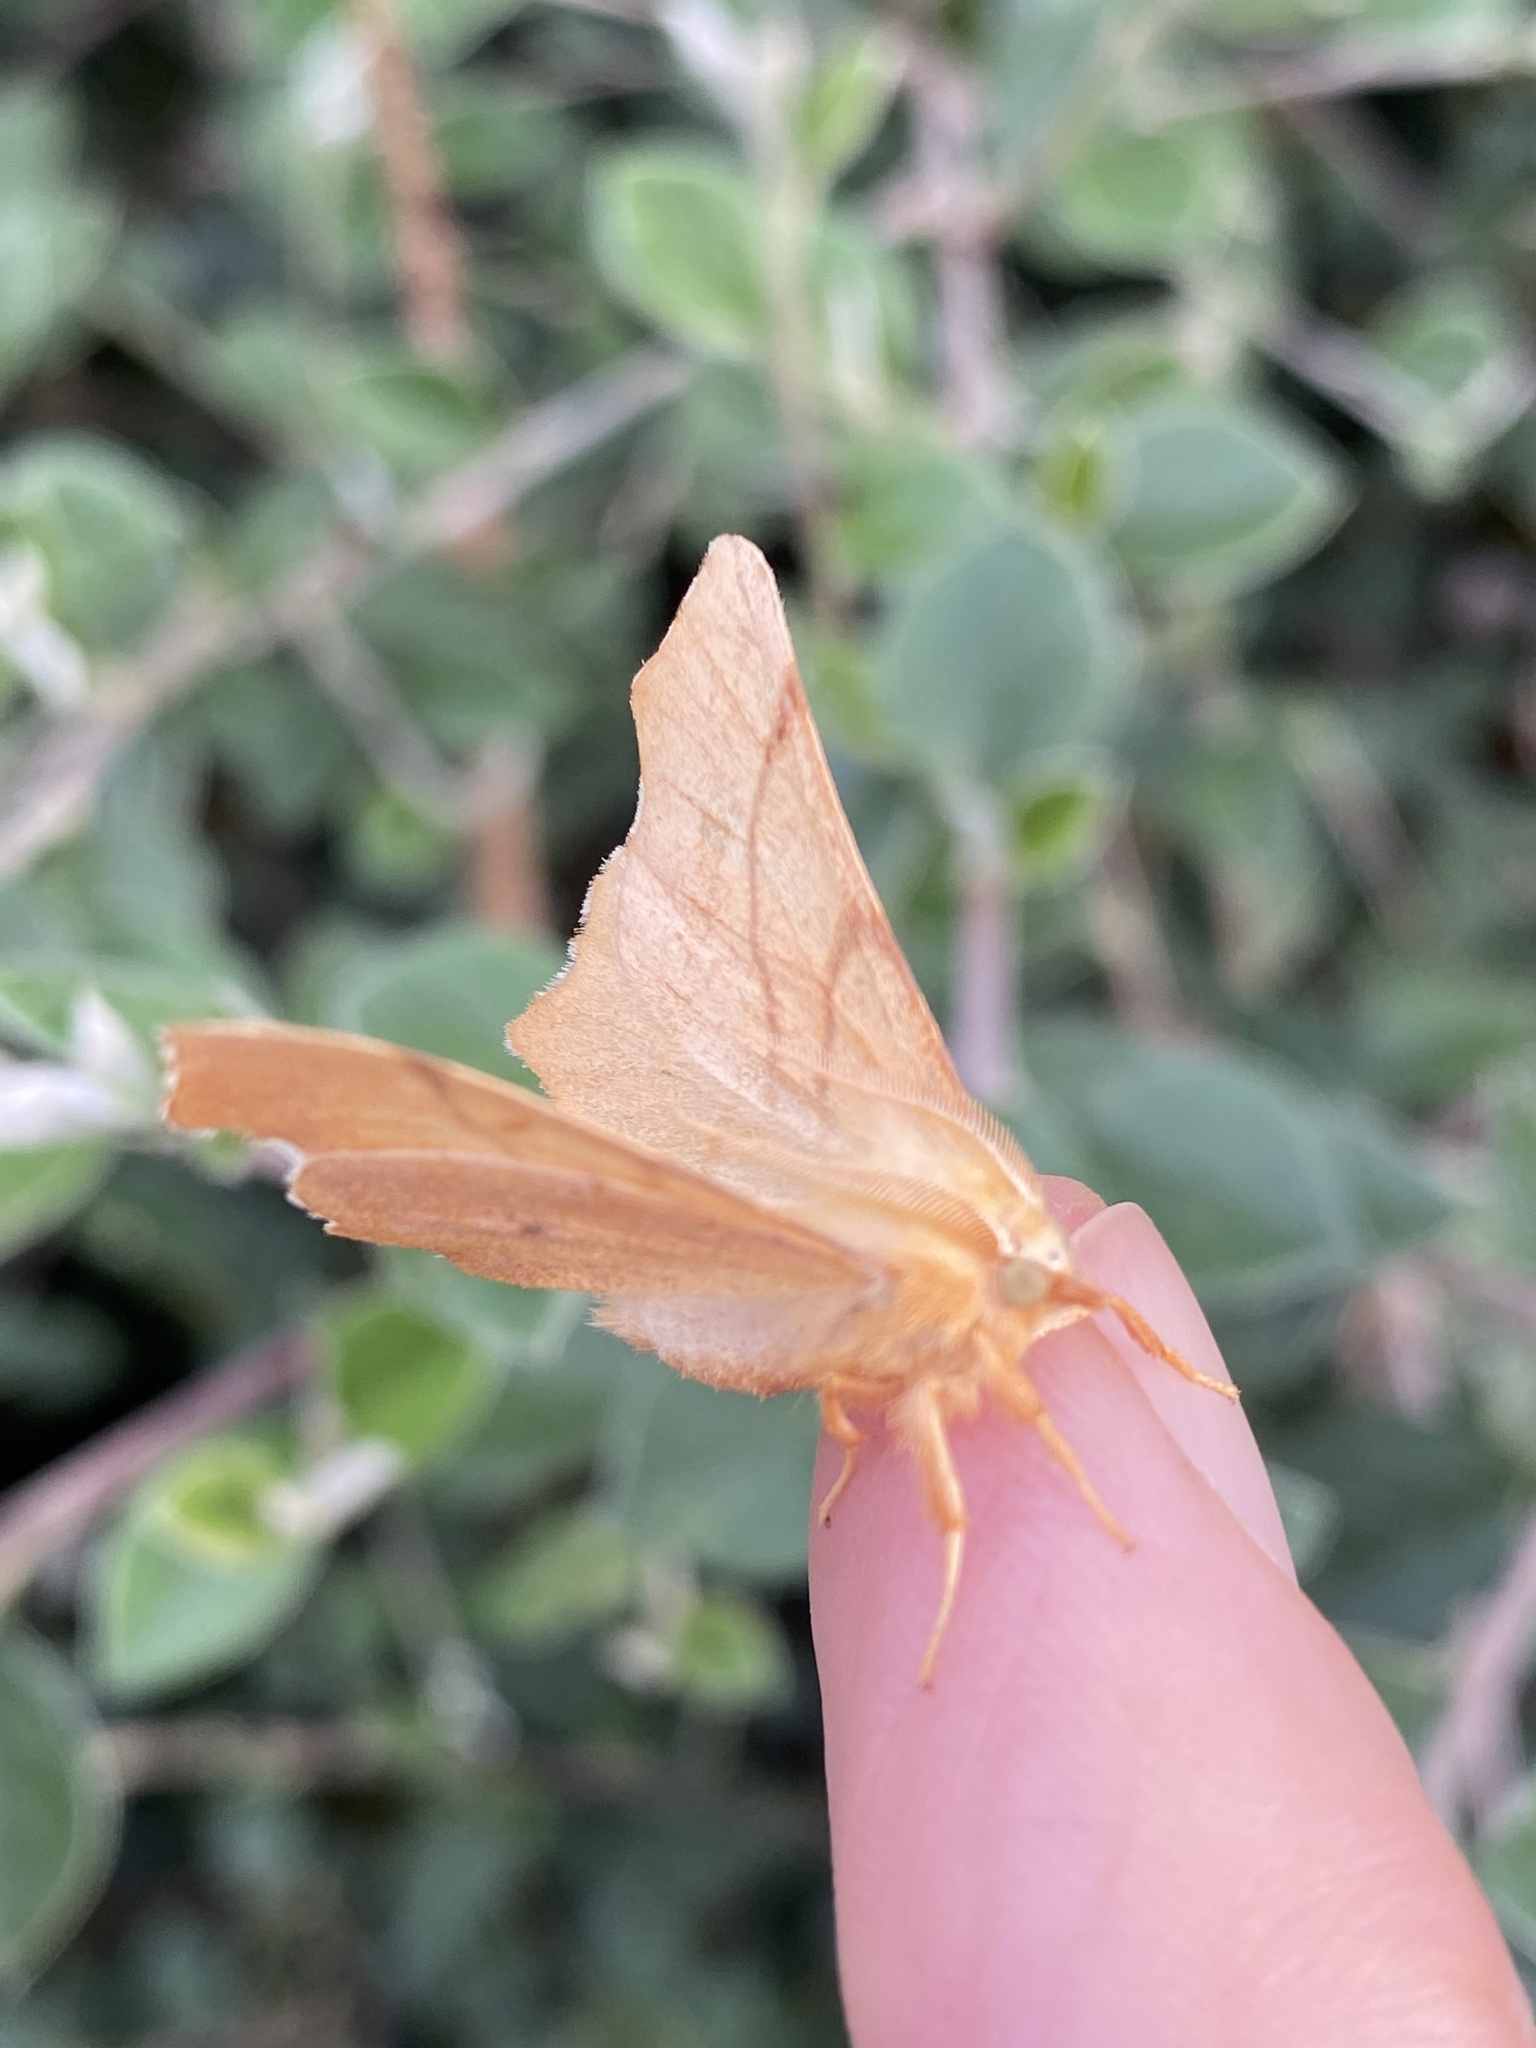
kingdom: Animalia
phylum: Arthropoda
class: Insecta
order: Lepidoptera
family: Geometridae
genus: Ennomos
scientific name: Ennomos erosaria
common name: September thorn
